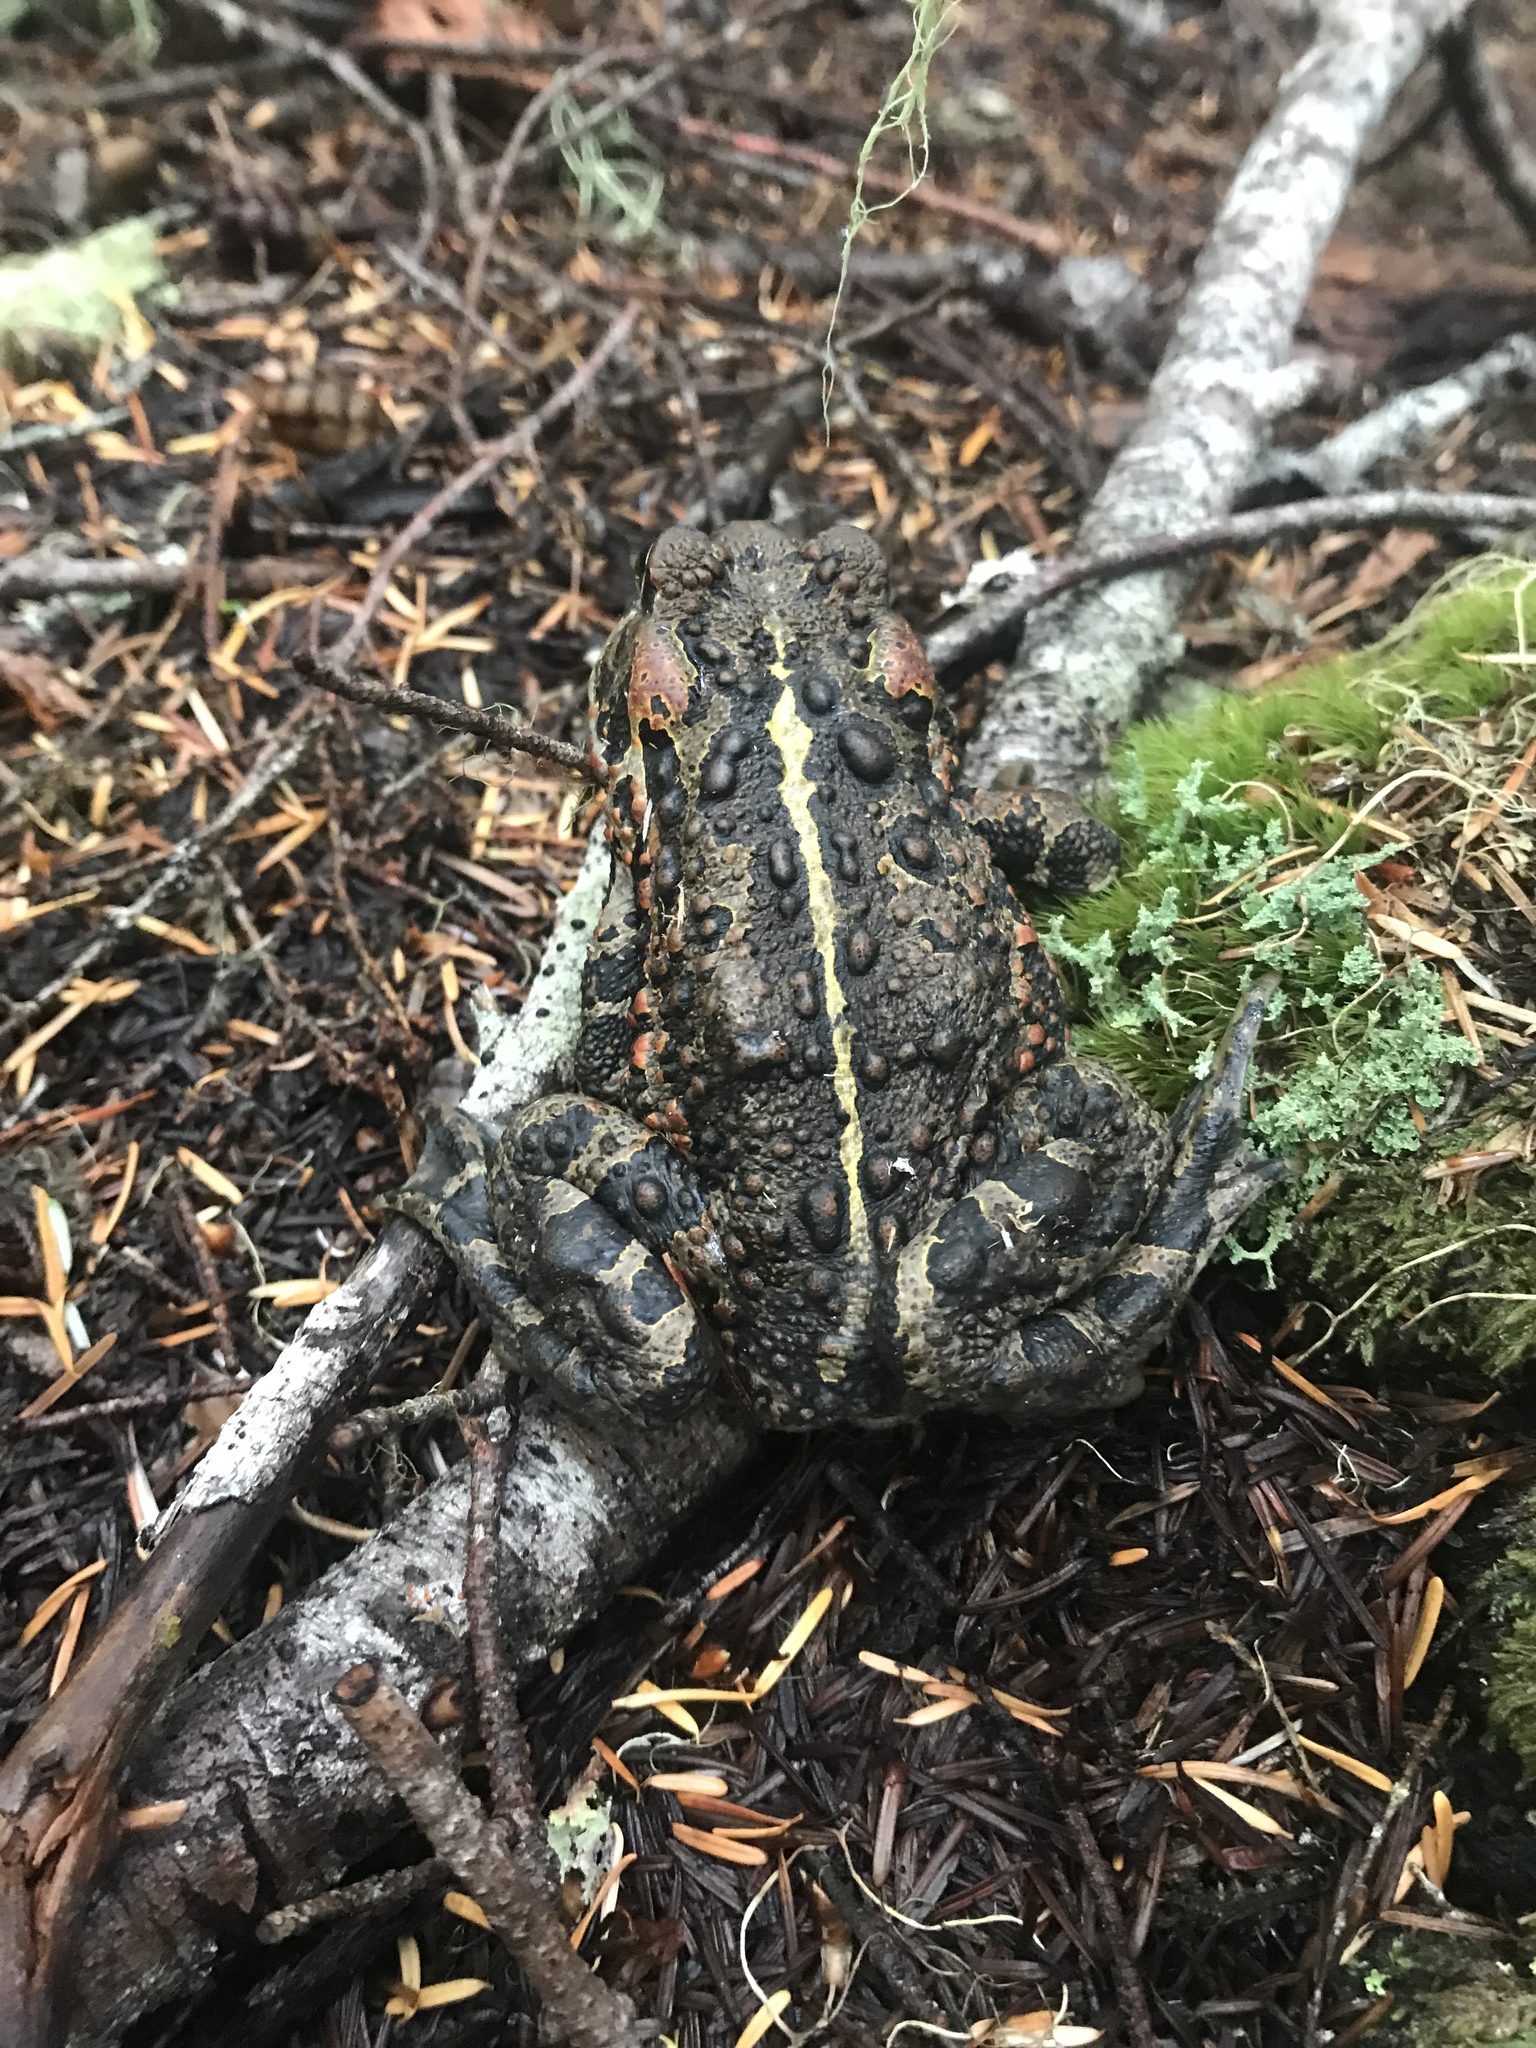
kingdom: Animalia
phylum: Chordata
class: Amphibia
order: Anura
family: Bufonidae
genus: Anaxyrus
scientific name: Anaxyrus boreas
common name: Western toad
